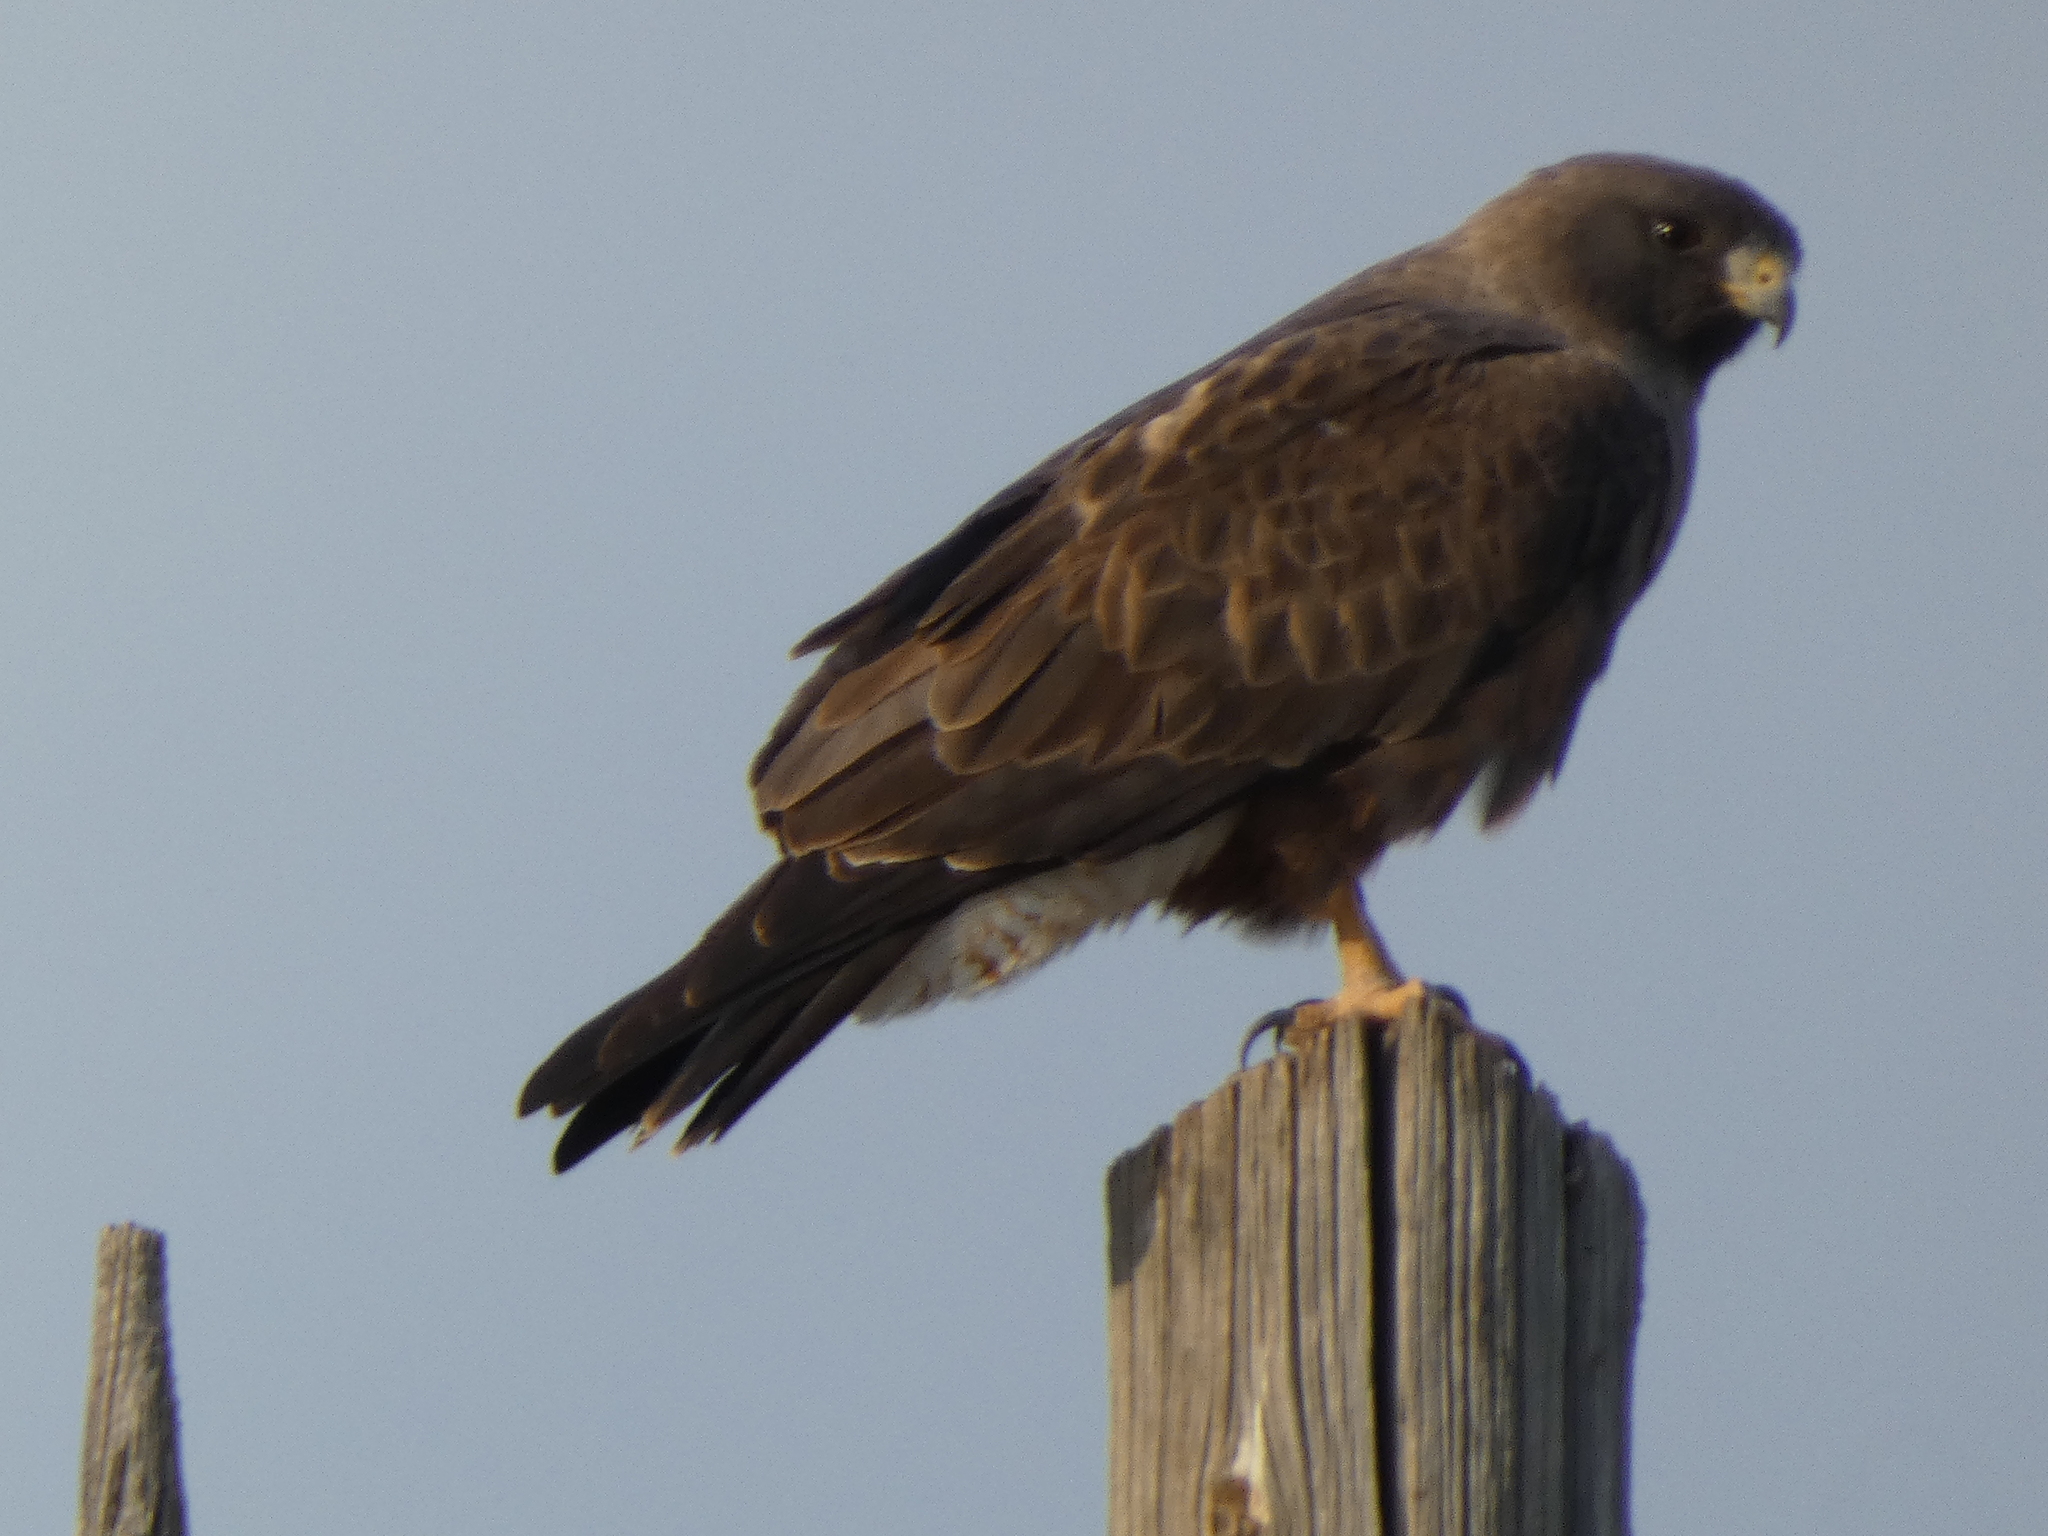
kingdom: Animalia
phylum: Chordata
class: Aves
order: Accipitriformes
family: Accipitridae
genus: Buteo
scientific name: Buteo swainsoni
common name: Swainson's hawk
